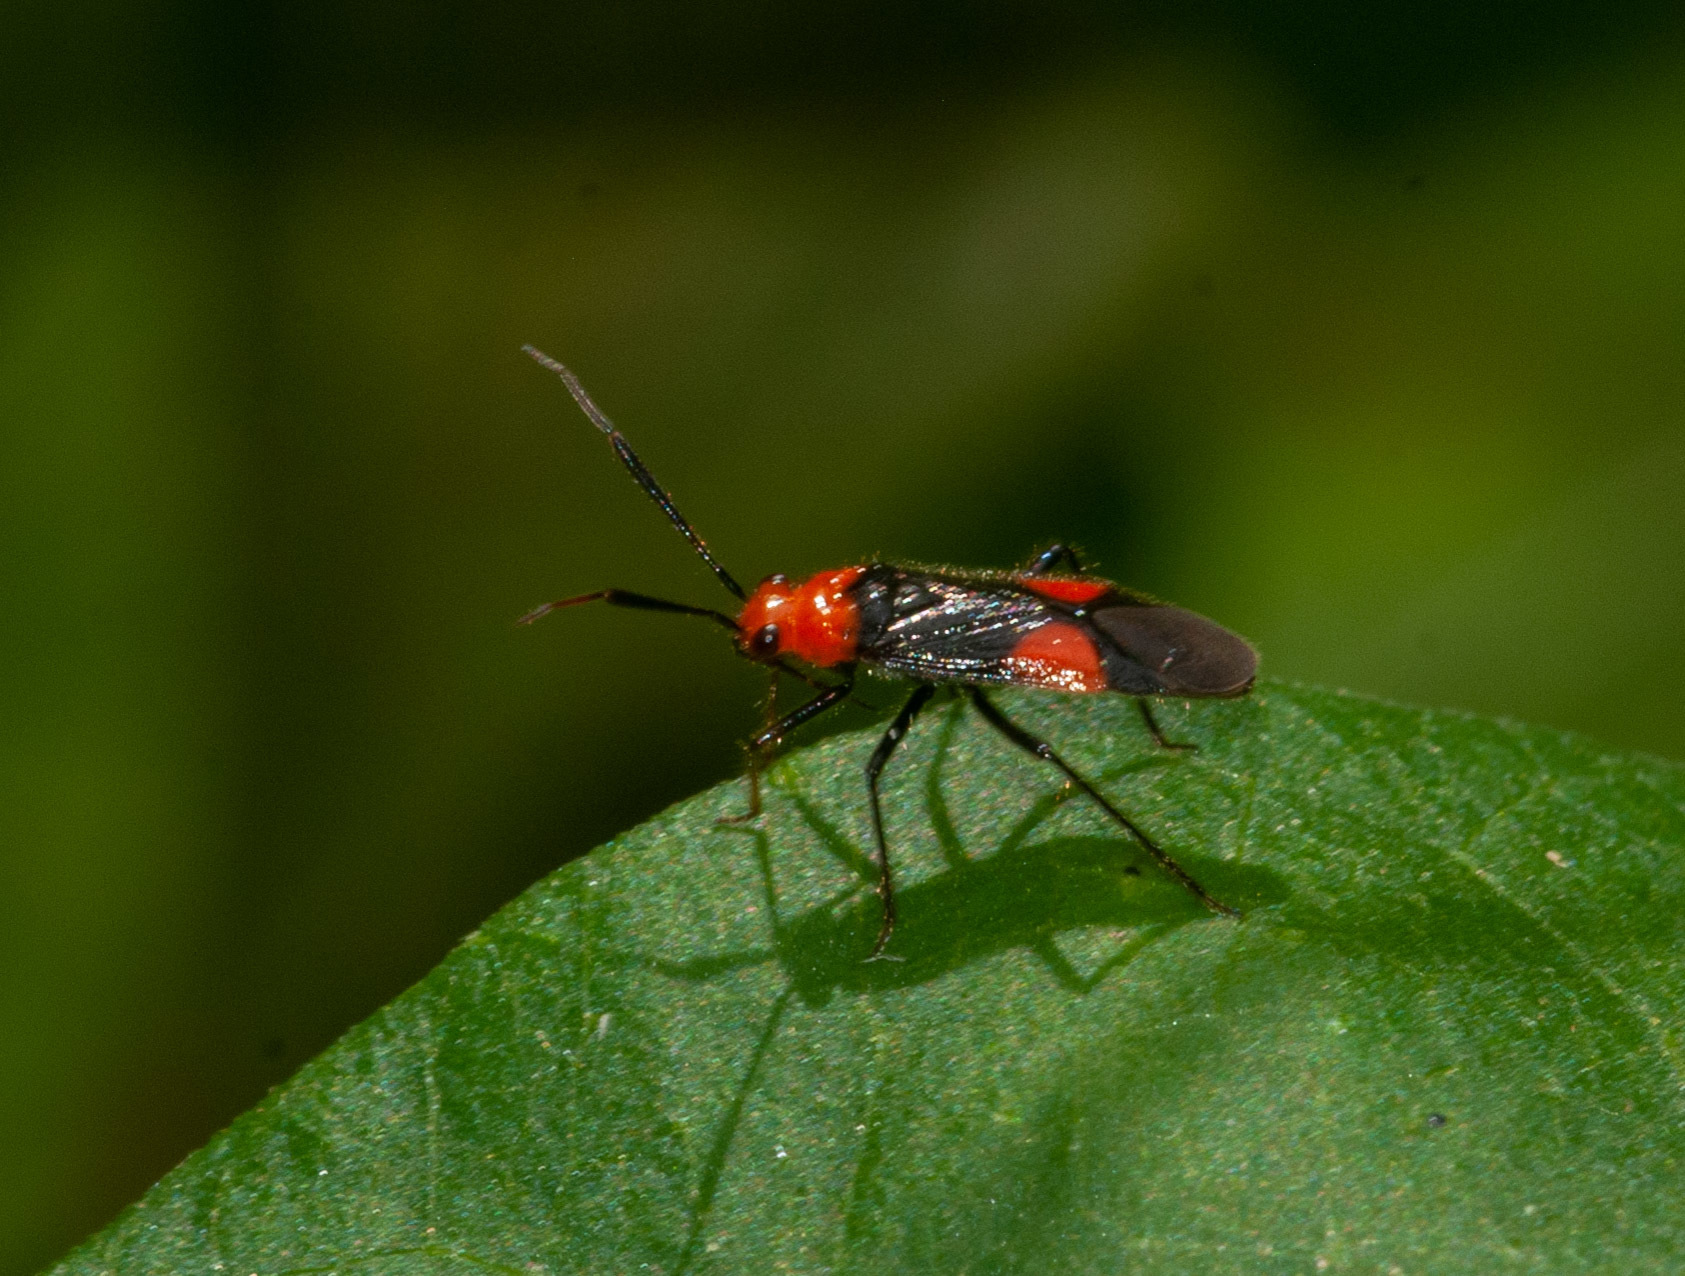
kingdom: Animalia
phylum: Arthropoda
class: Insecta
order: Hemiptera
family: Miridae
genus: Trilaccus
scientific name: Trilaccus nigroruber
